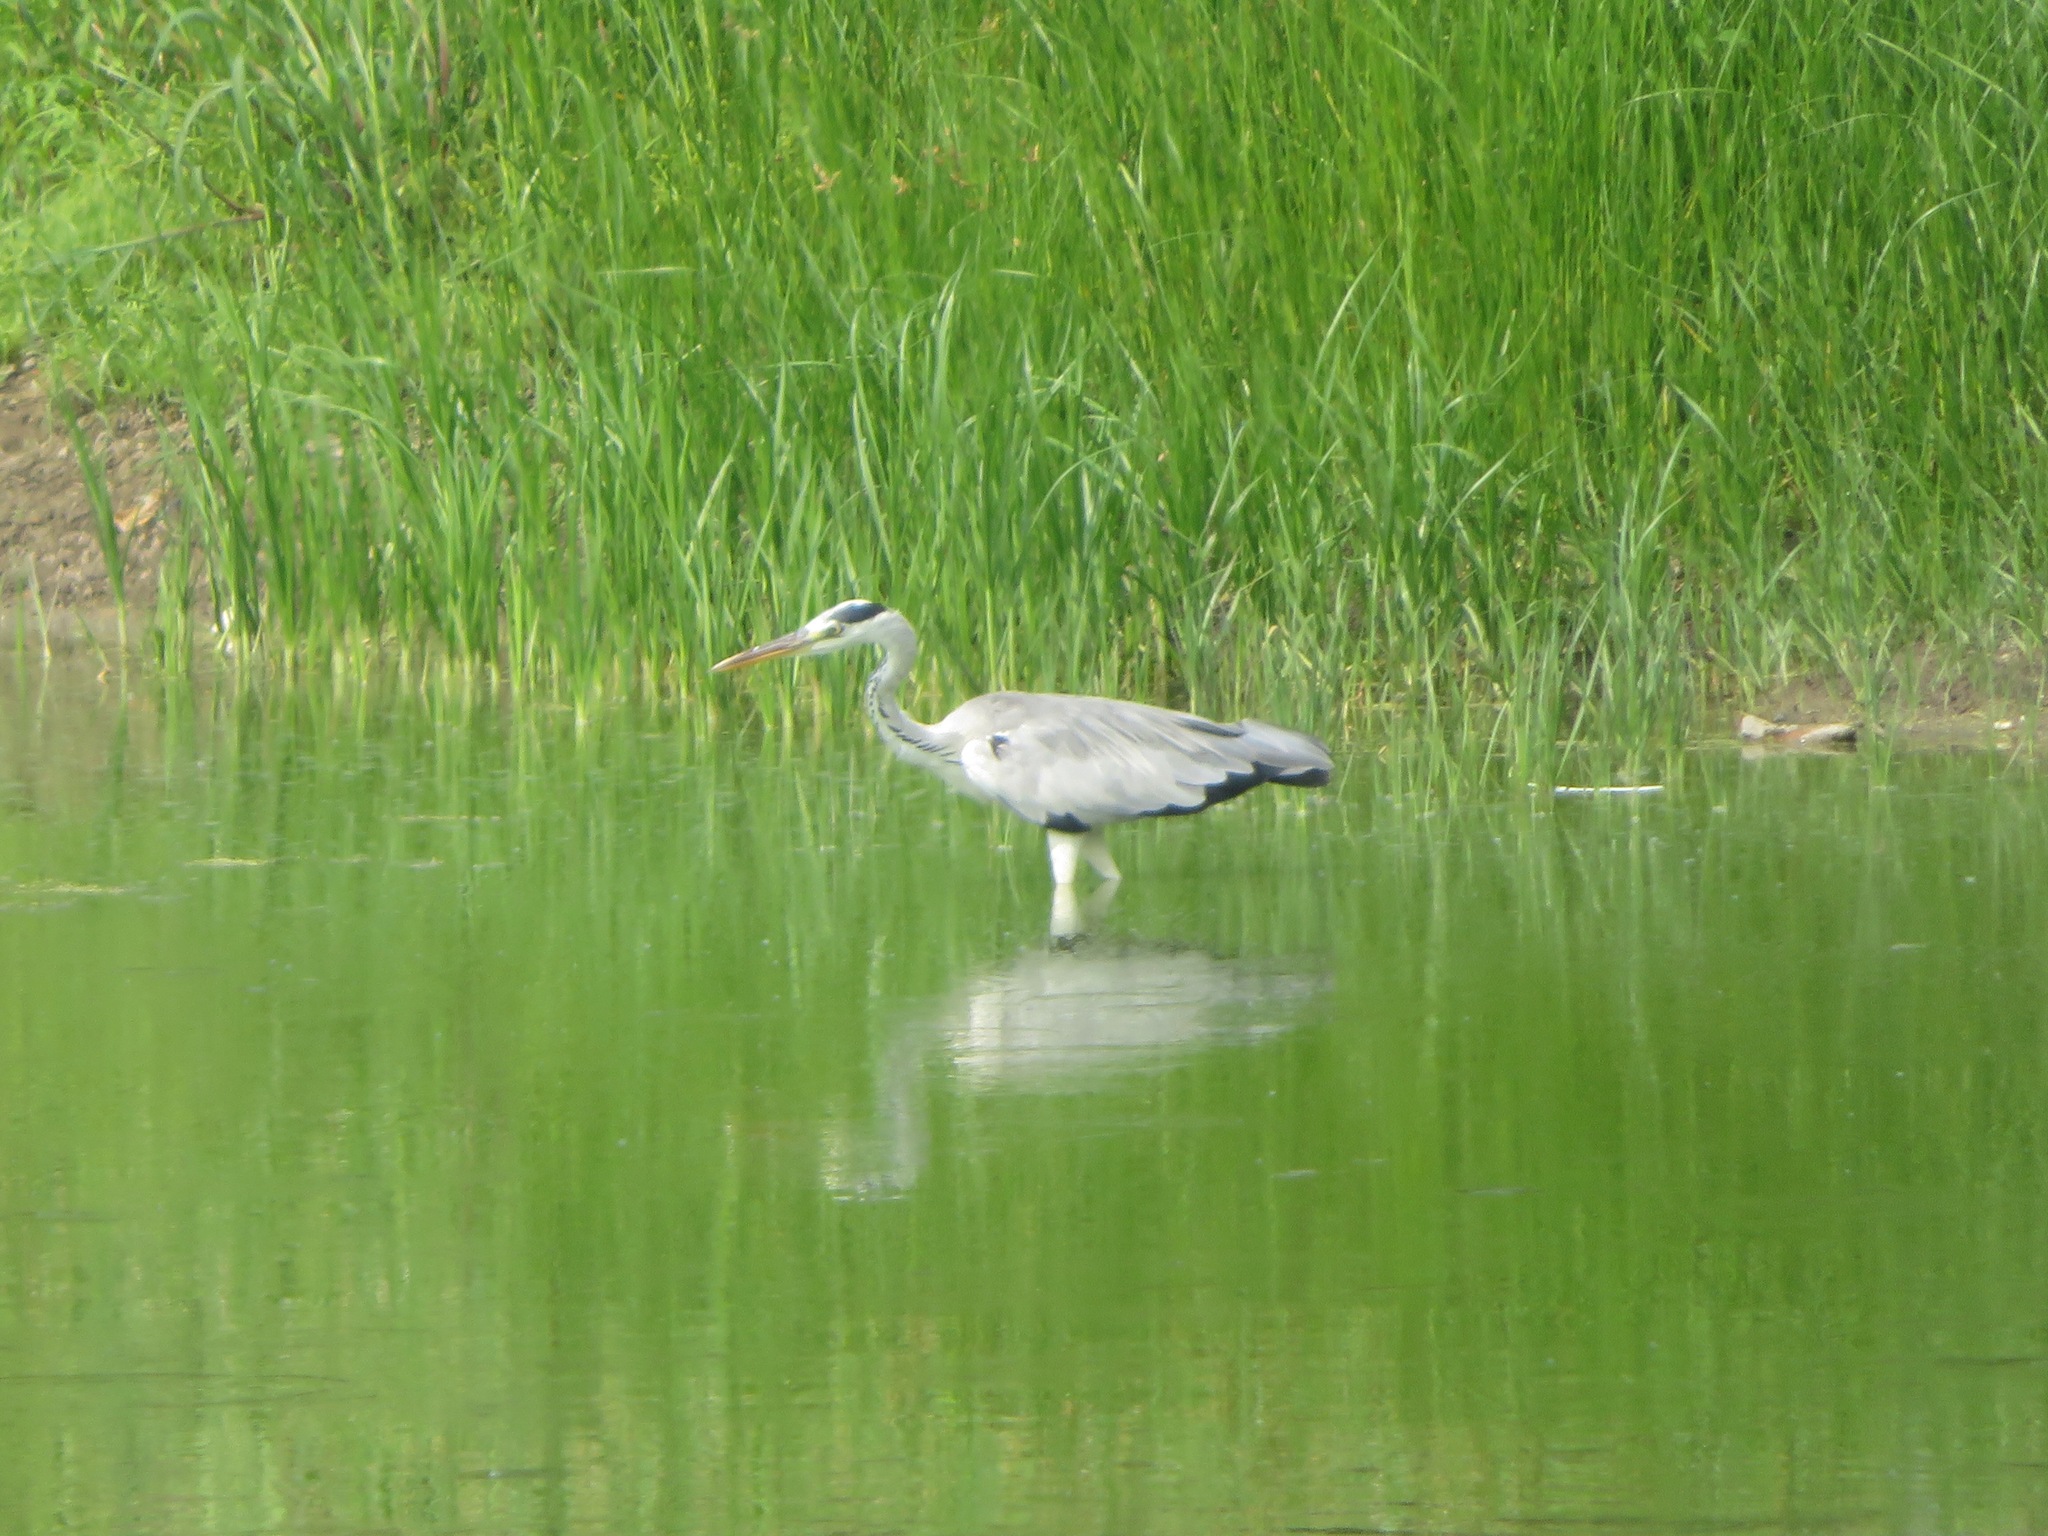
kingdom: Animalia
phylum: Chordata
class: Aves
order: Pelecaniformes
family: Ardeidae
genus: Ardea
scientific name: Ardea cinerea
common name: Grey heron
